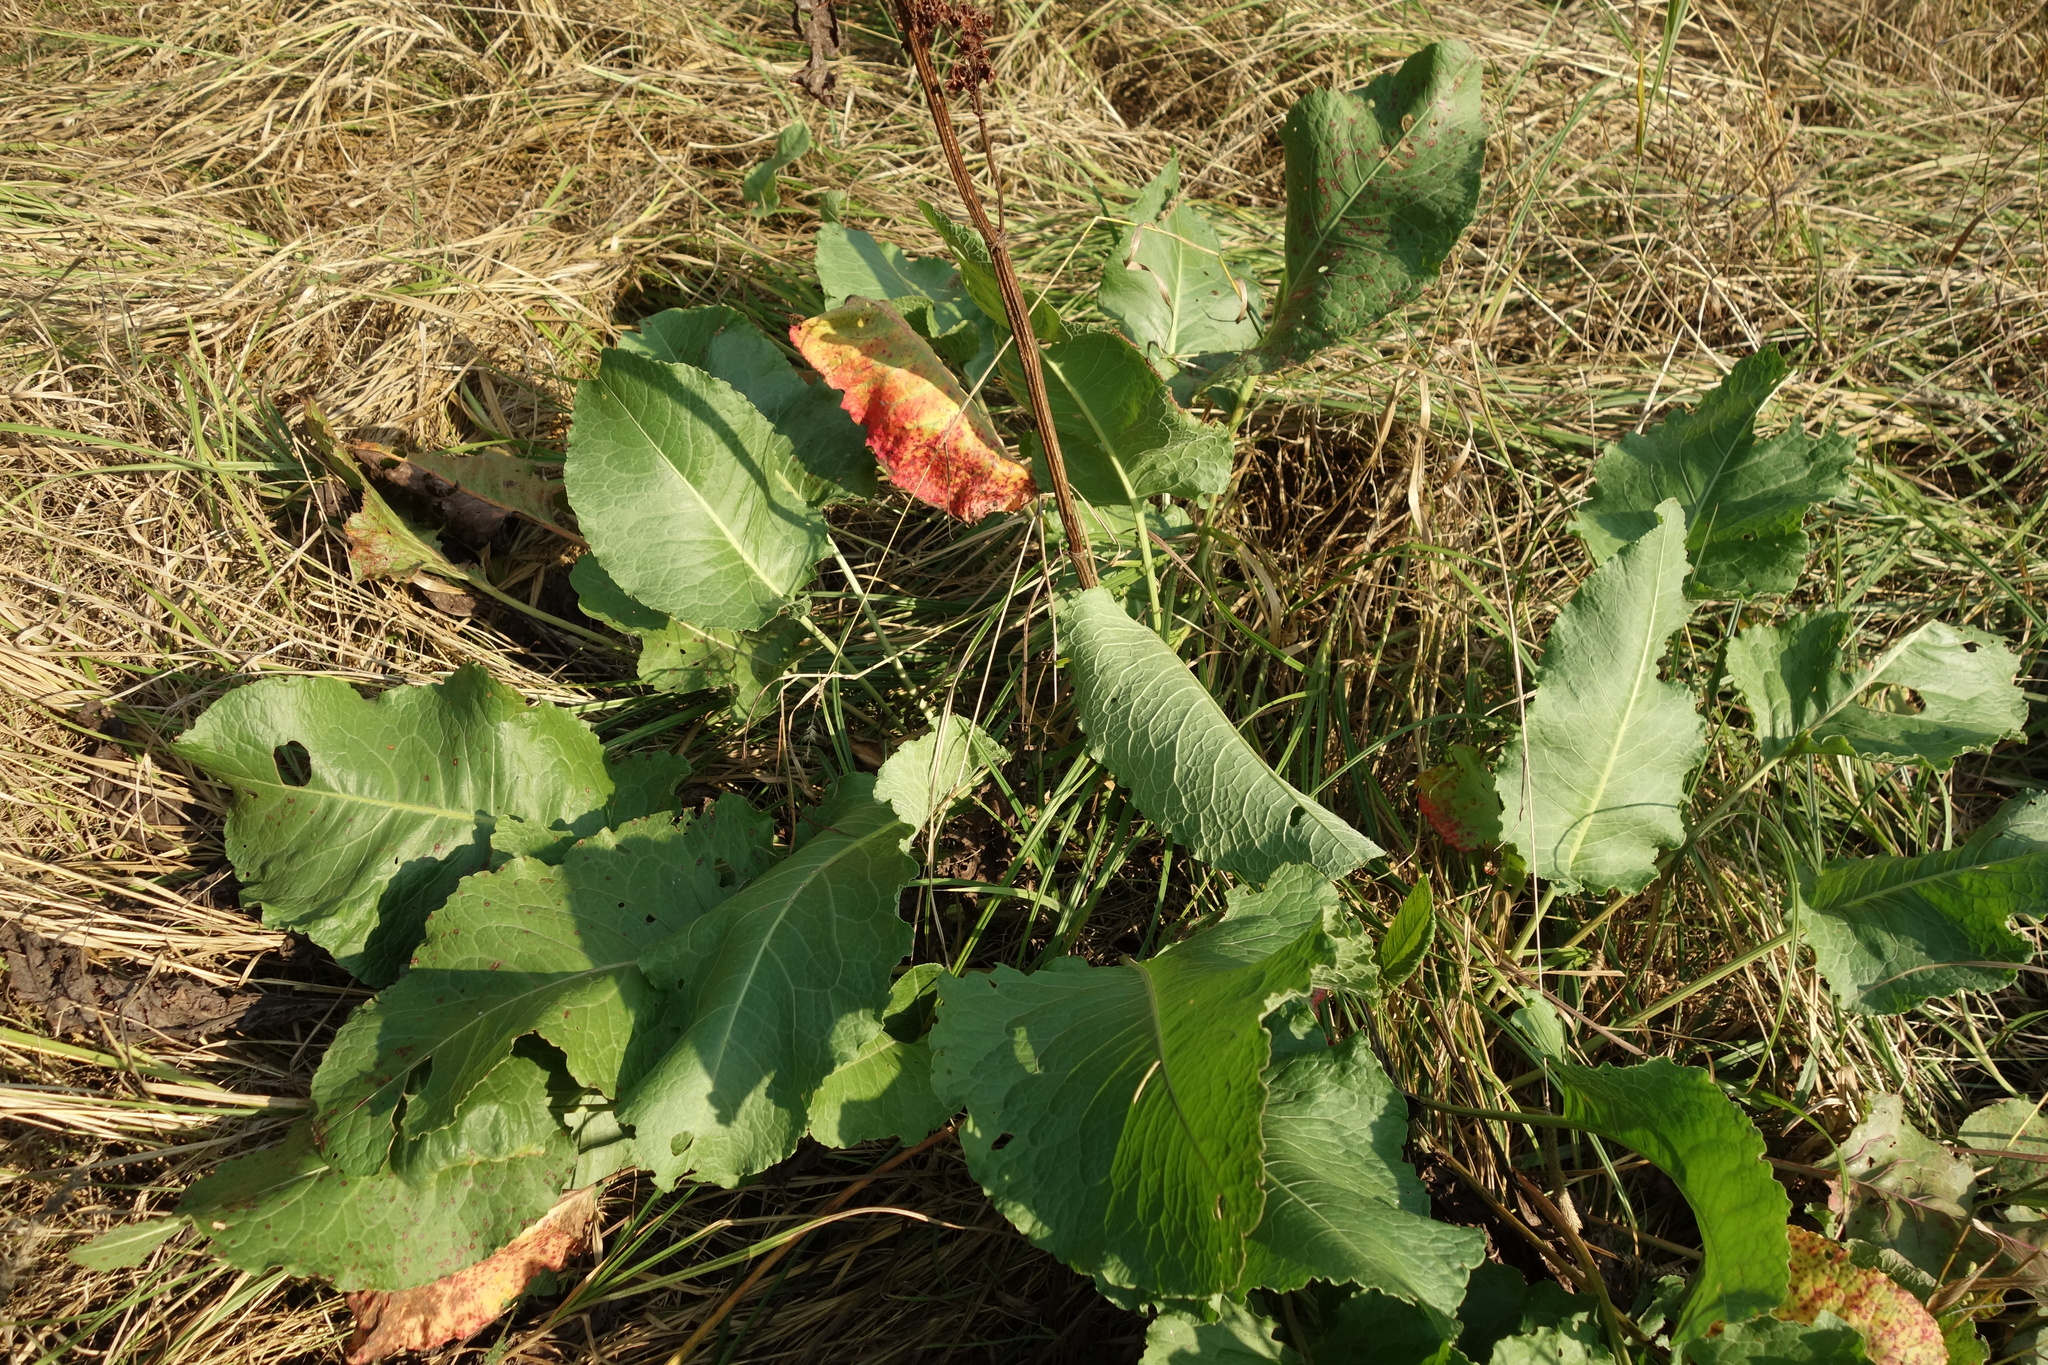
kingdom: Plantae
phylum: Tracheophyta
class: Magnoliopsida
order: Caryophyllales
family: Polygonaceae
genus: Rumex
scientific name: Rumex confertus
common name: Russian dock
